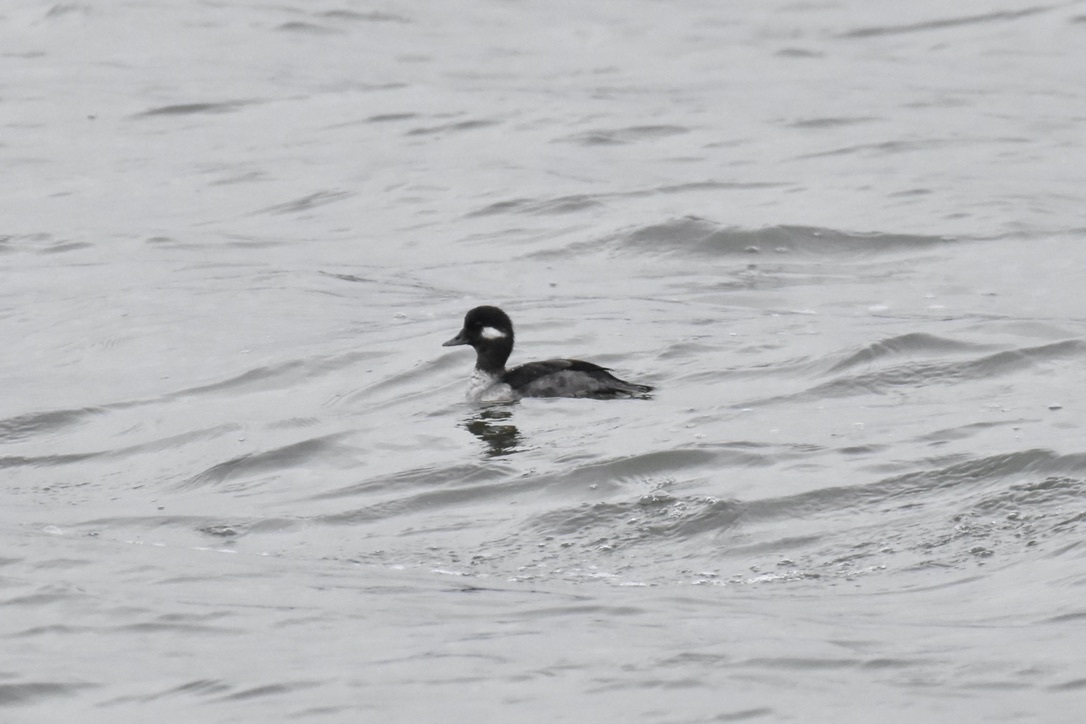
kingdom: Animalia
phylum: Chordata
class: Aves
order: Anseriformes
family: Anatidae
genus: Bucephala
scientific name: Bucephala albeola
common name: Bufflehead
